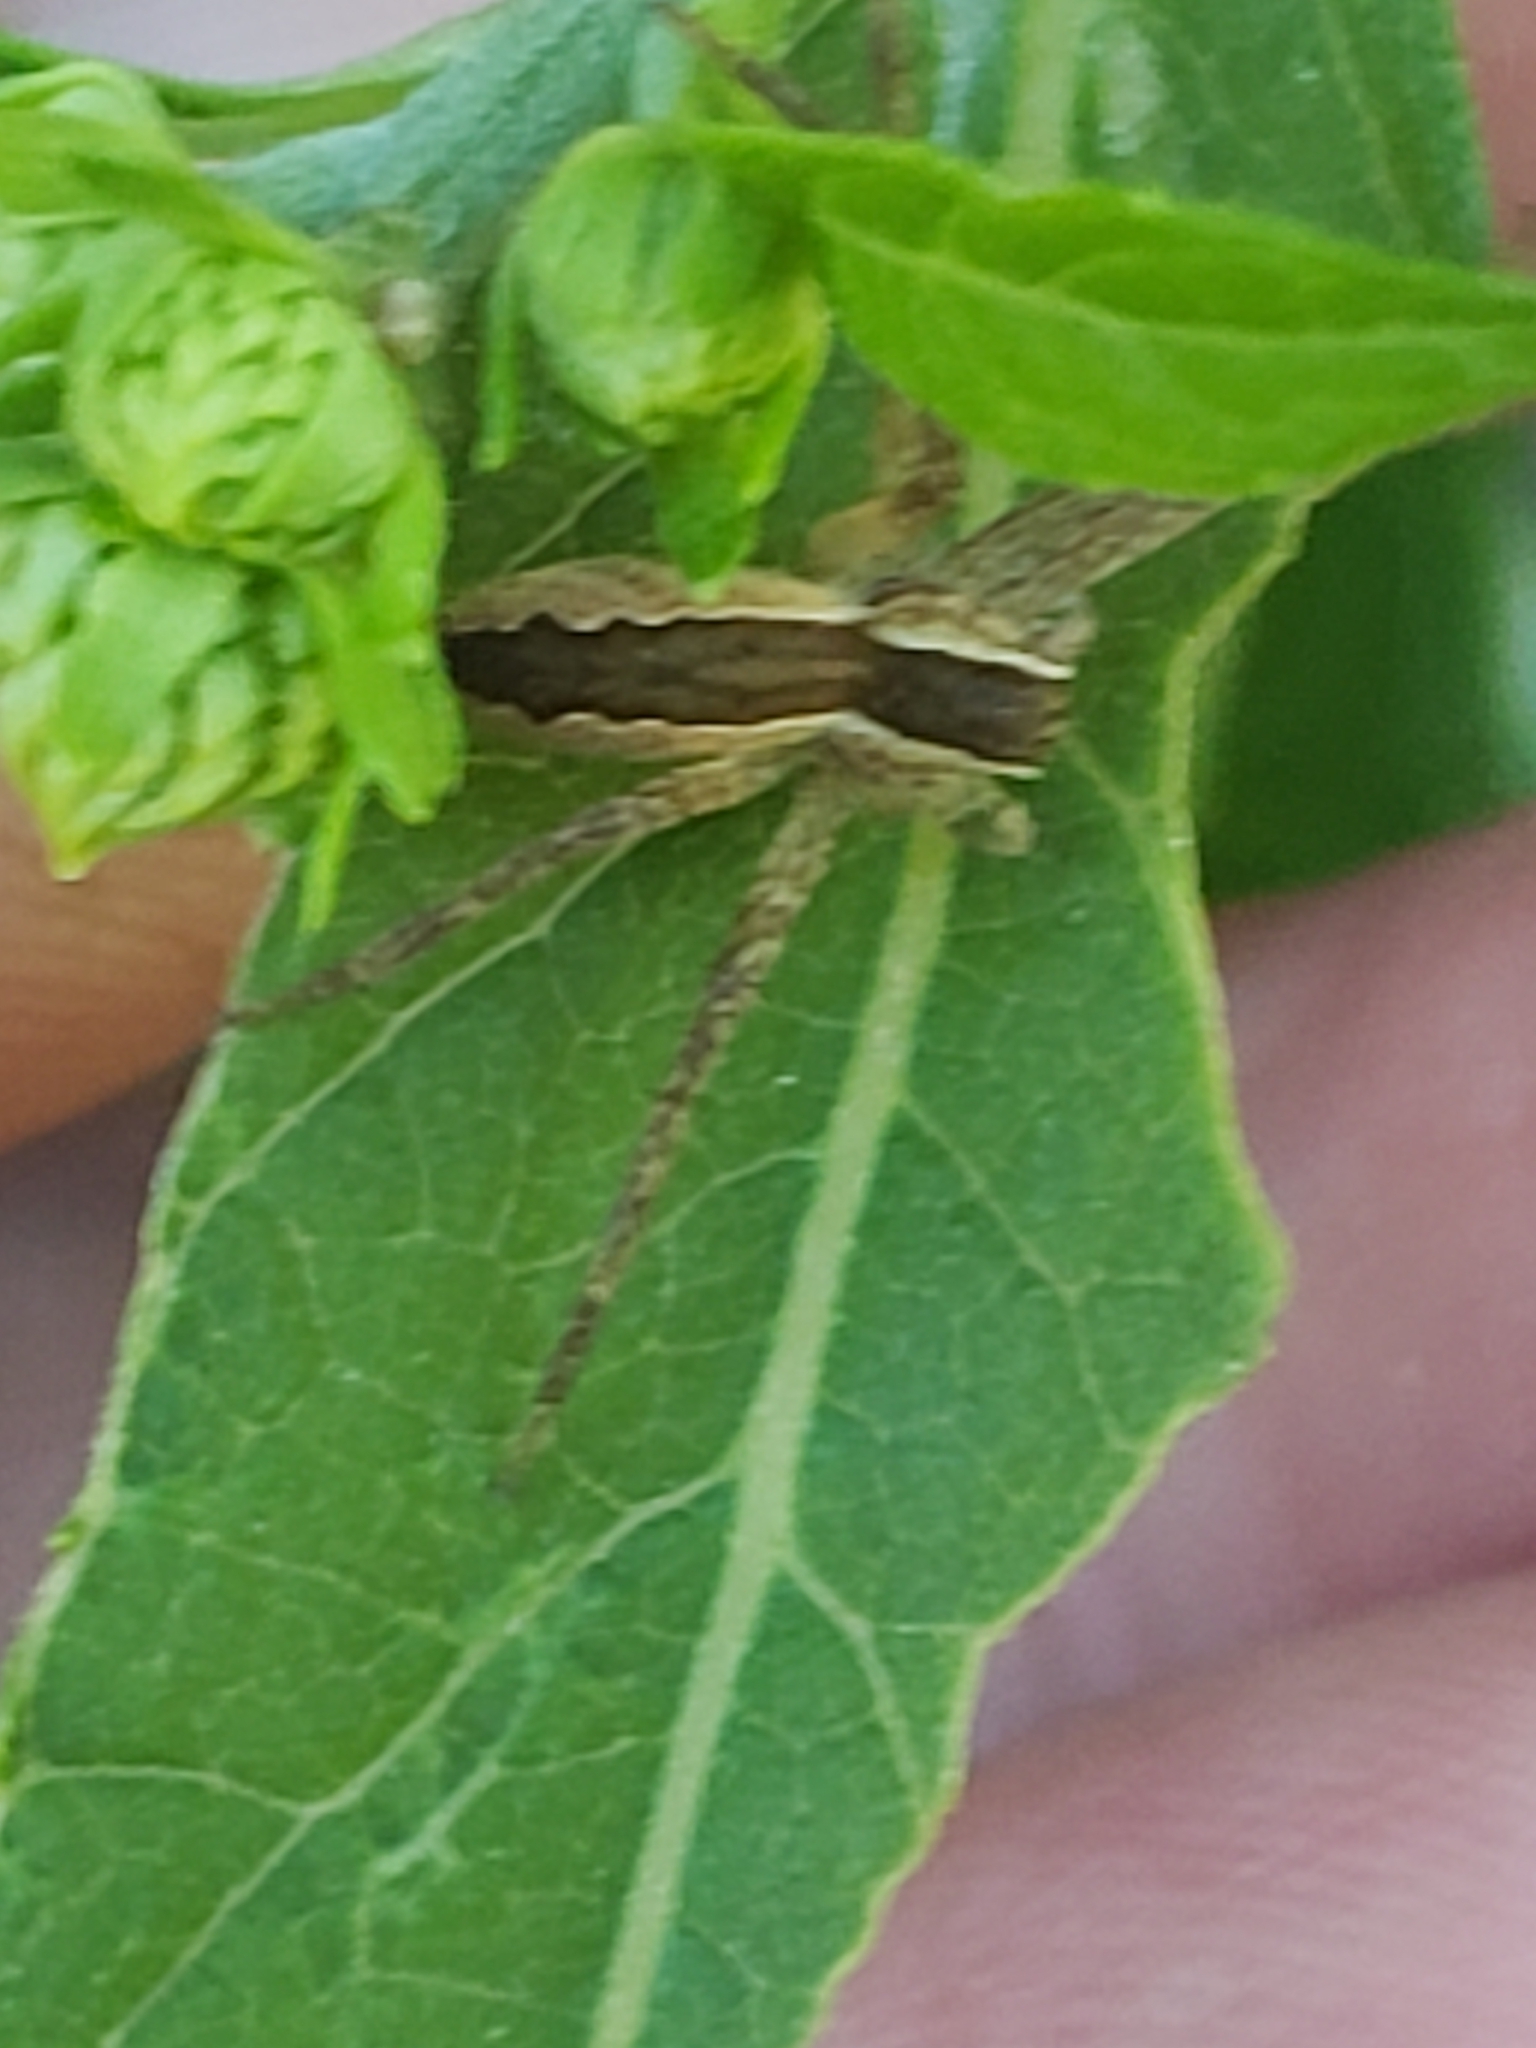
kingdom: Animalia
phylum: Arthropoda
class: Arachnida
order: Araneae
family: Pisauridae
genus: Pisaurina
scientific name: Pisaurina mira
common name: American nursery web spider
